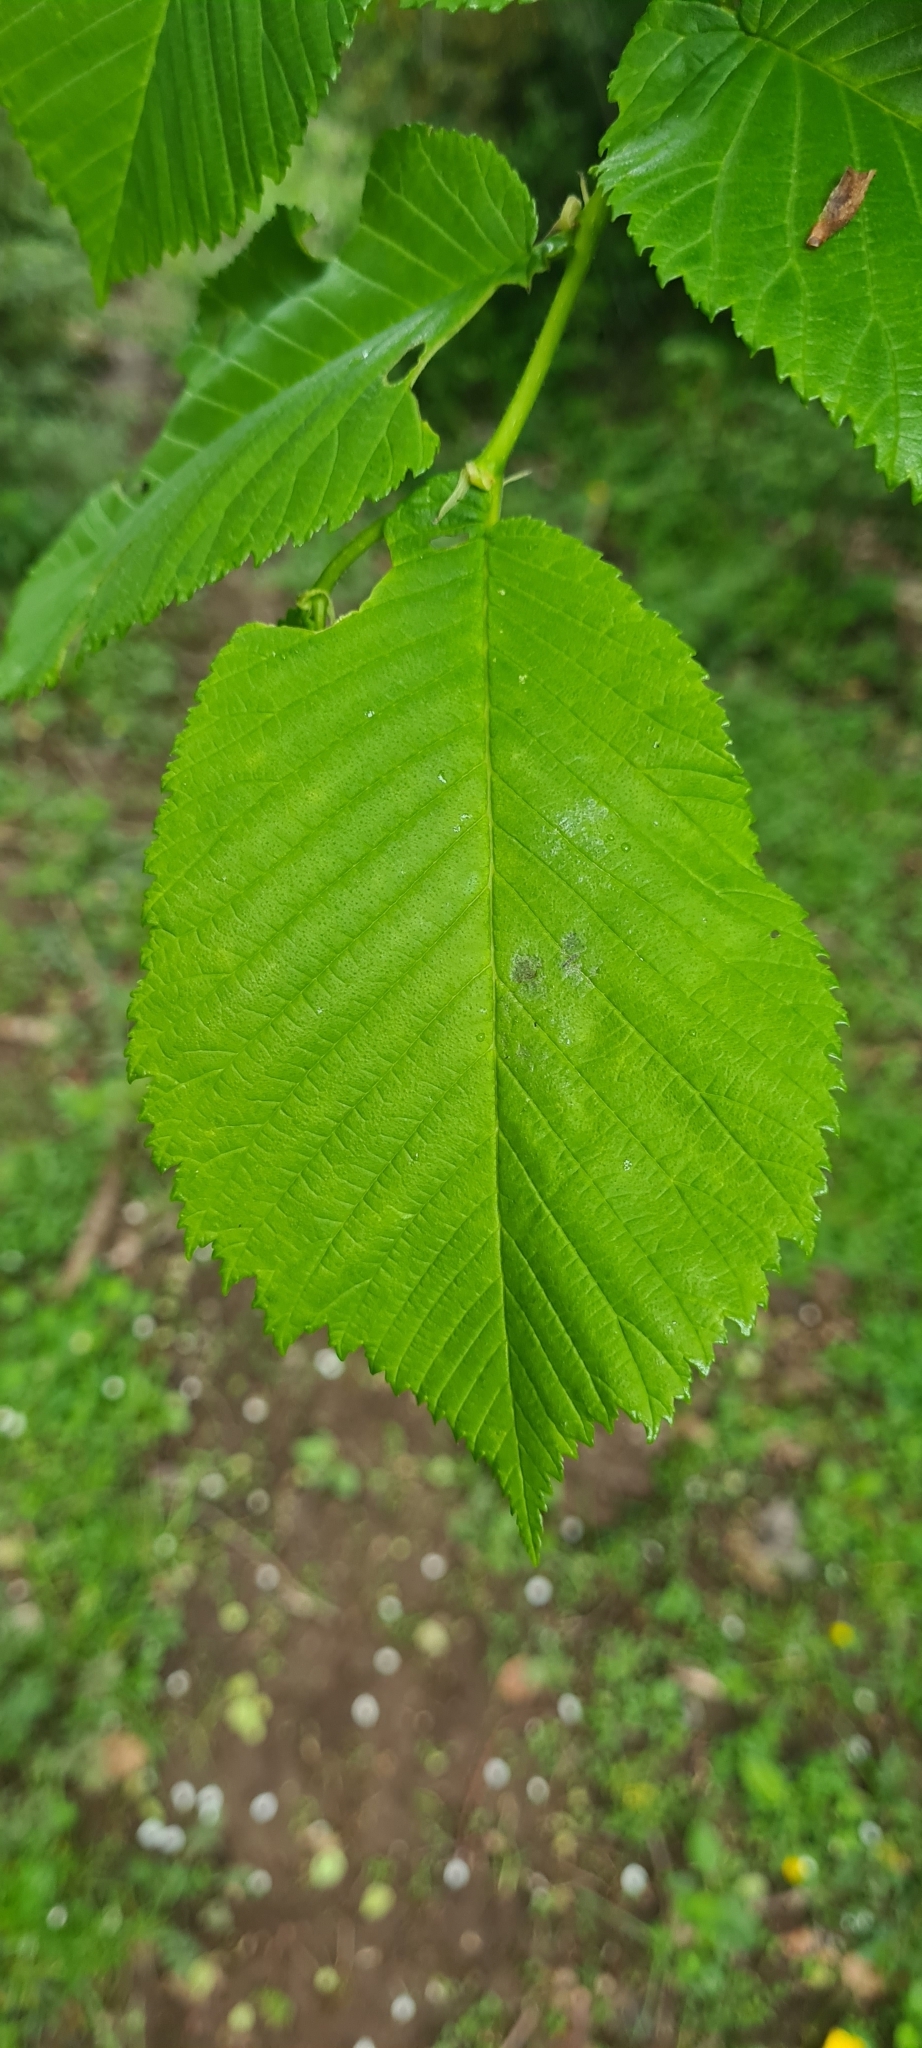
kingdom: Plantae
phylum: Tracheophyta
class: Magnoliopsida
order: Rosales
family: Ulmaceae
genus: Ulmus
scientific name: Ulmus glabra
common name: Wych elm
